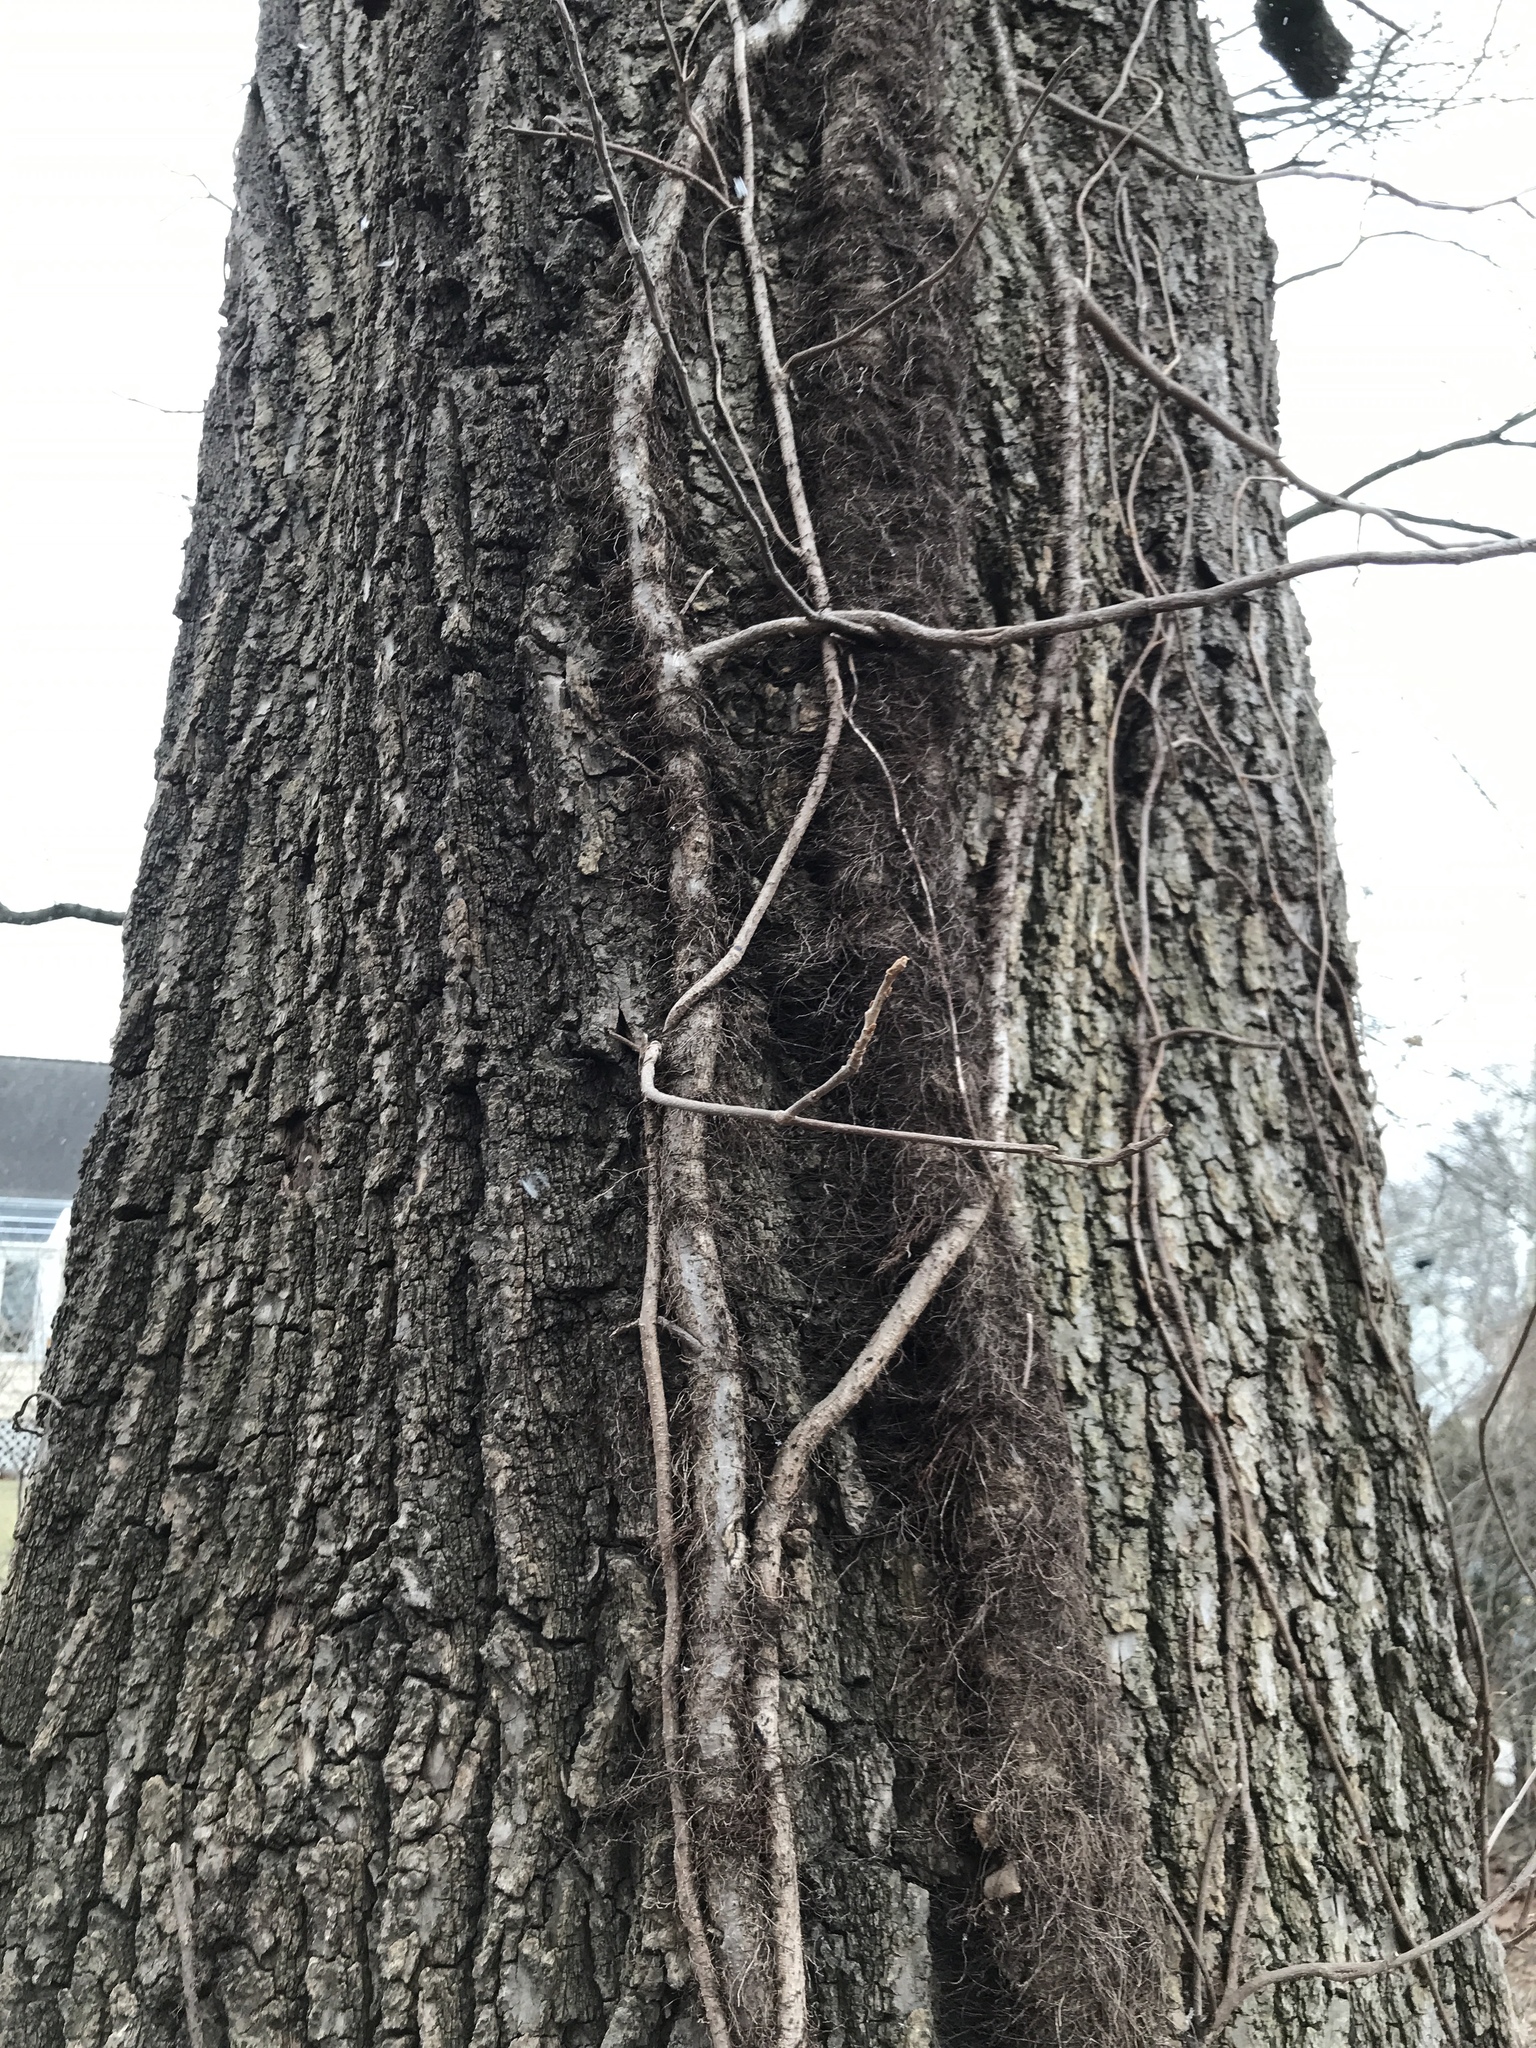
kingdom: Plantae
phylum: Tracheophyta
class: Magnoliopsida
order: Sapindales
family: Anacardiaceae
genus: Toxicodendron
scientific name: Toxicodendron radicans
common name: Poison ivy
